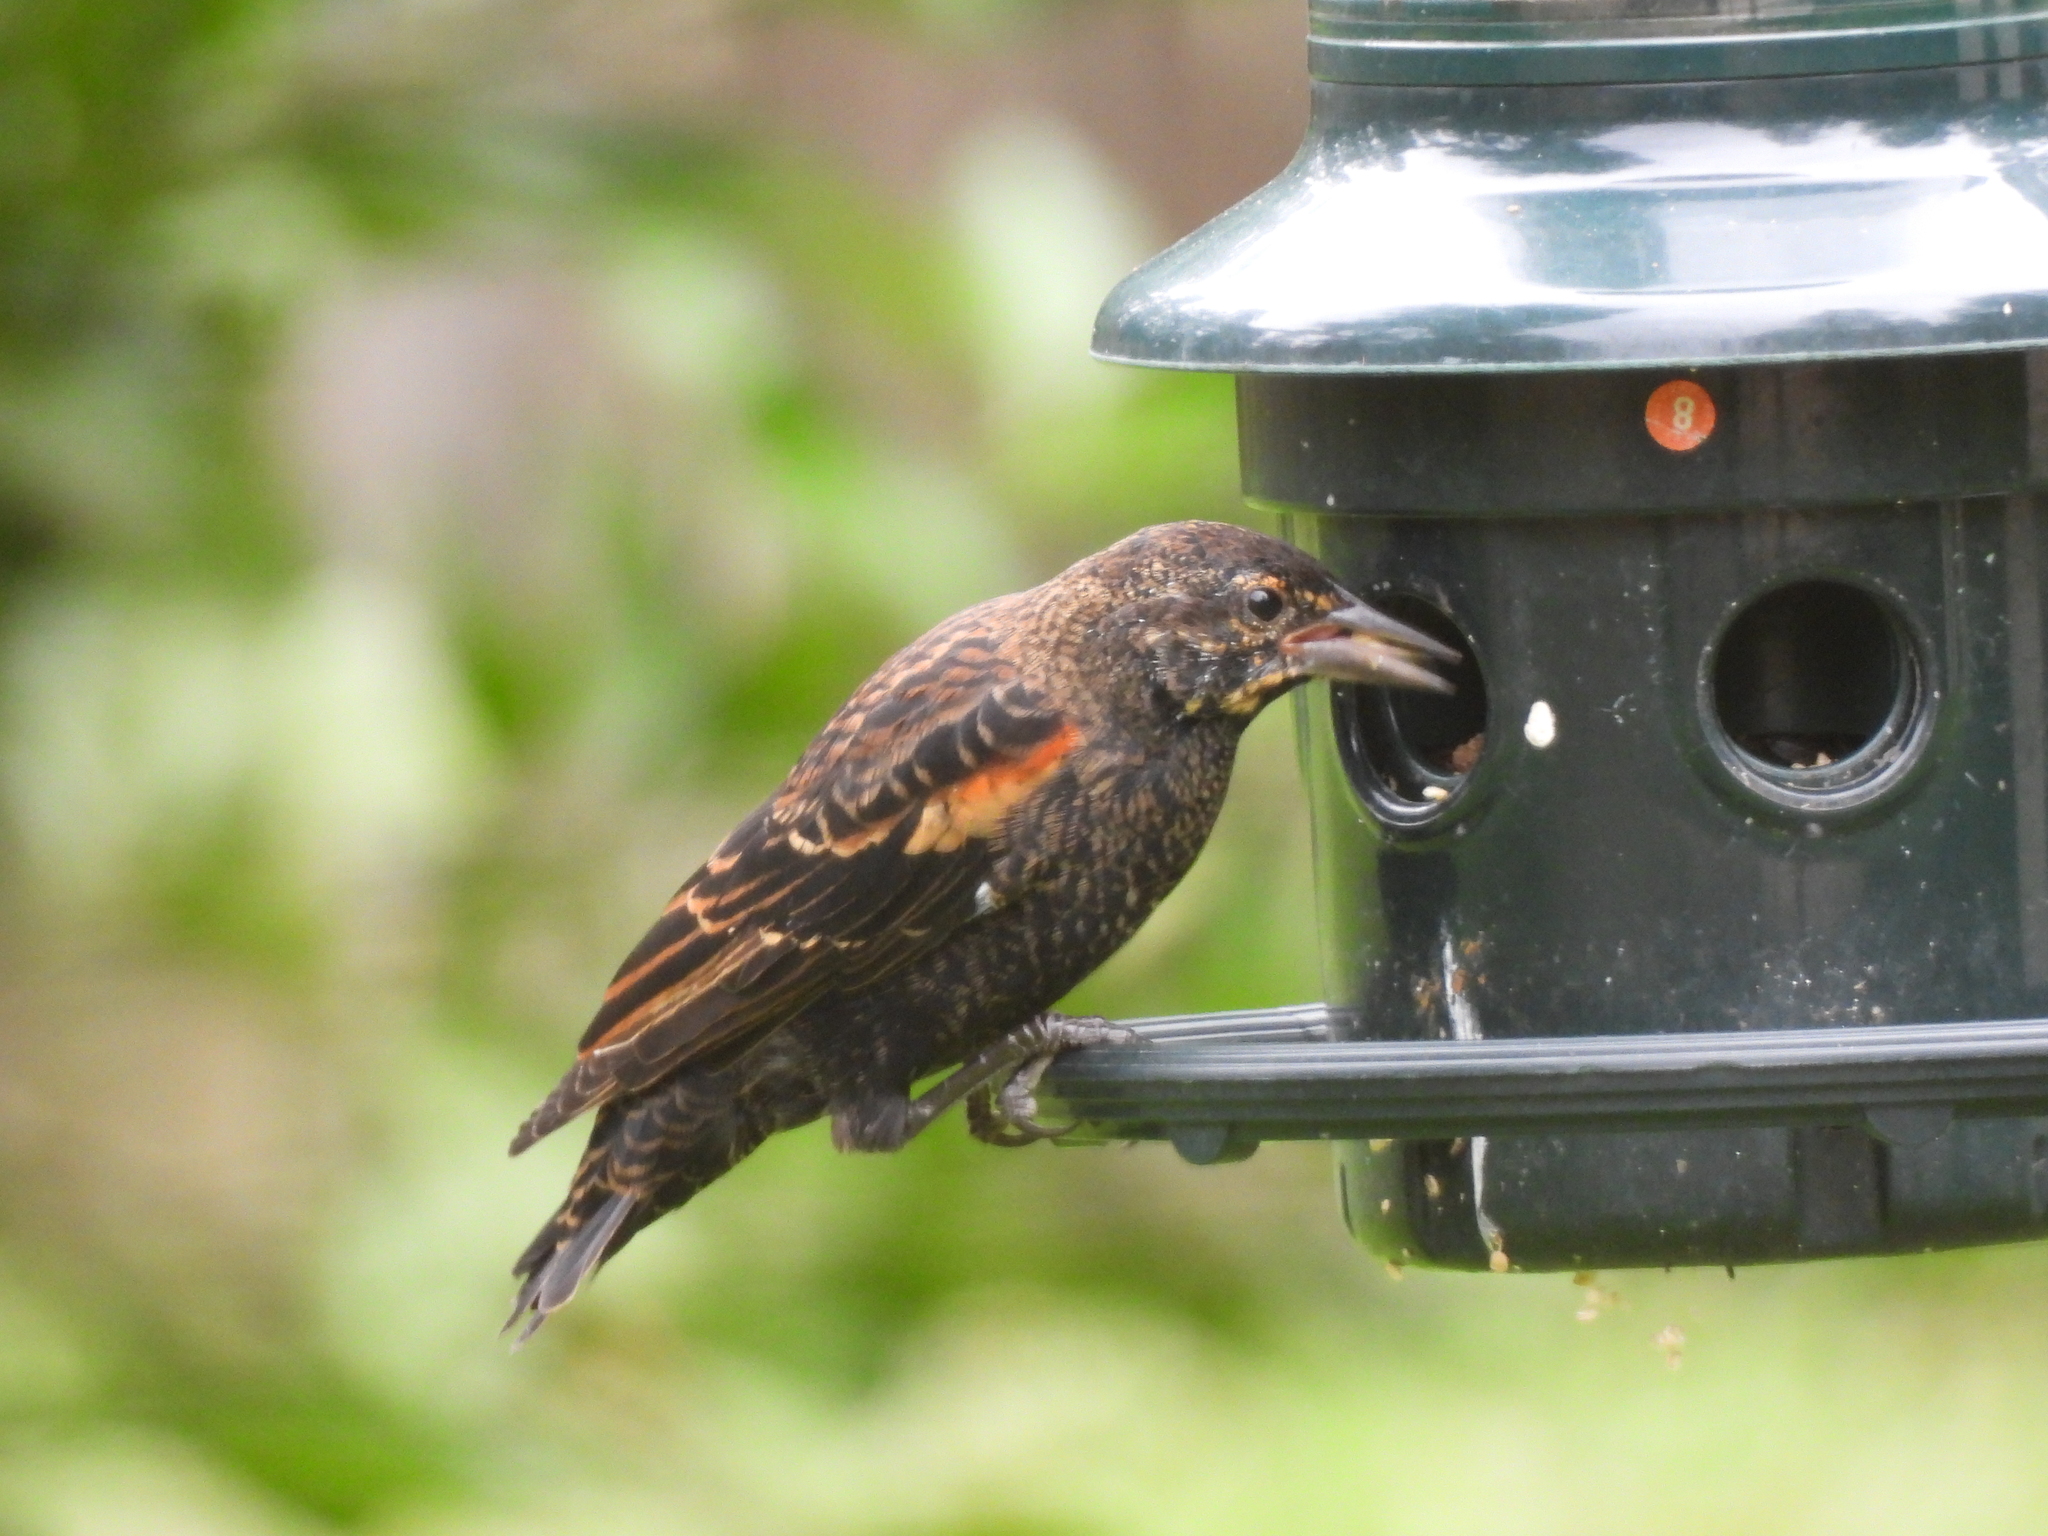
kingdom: Animalia
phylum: Chordata
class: Aves
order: Passeriformes
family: Icteridae
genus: Agelaius
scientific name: Agelaius phoeniceus
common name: Red-winged blackbird
